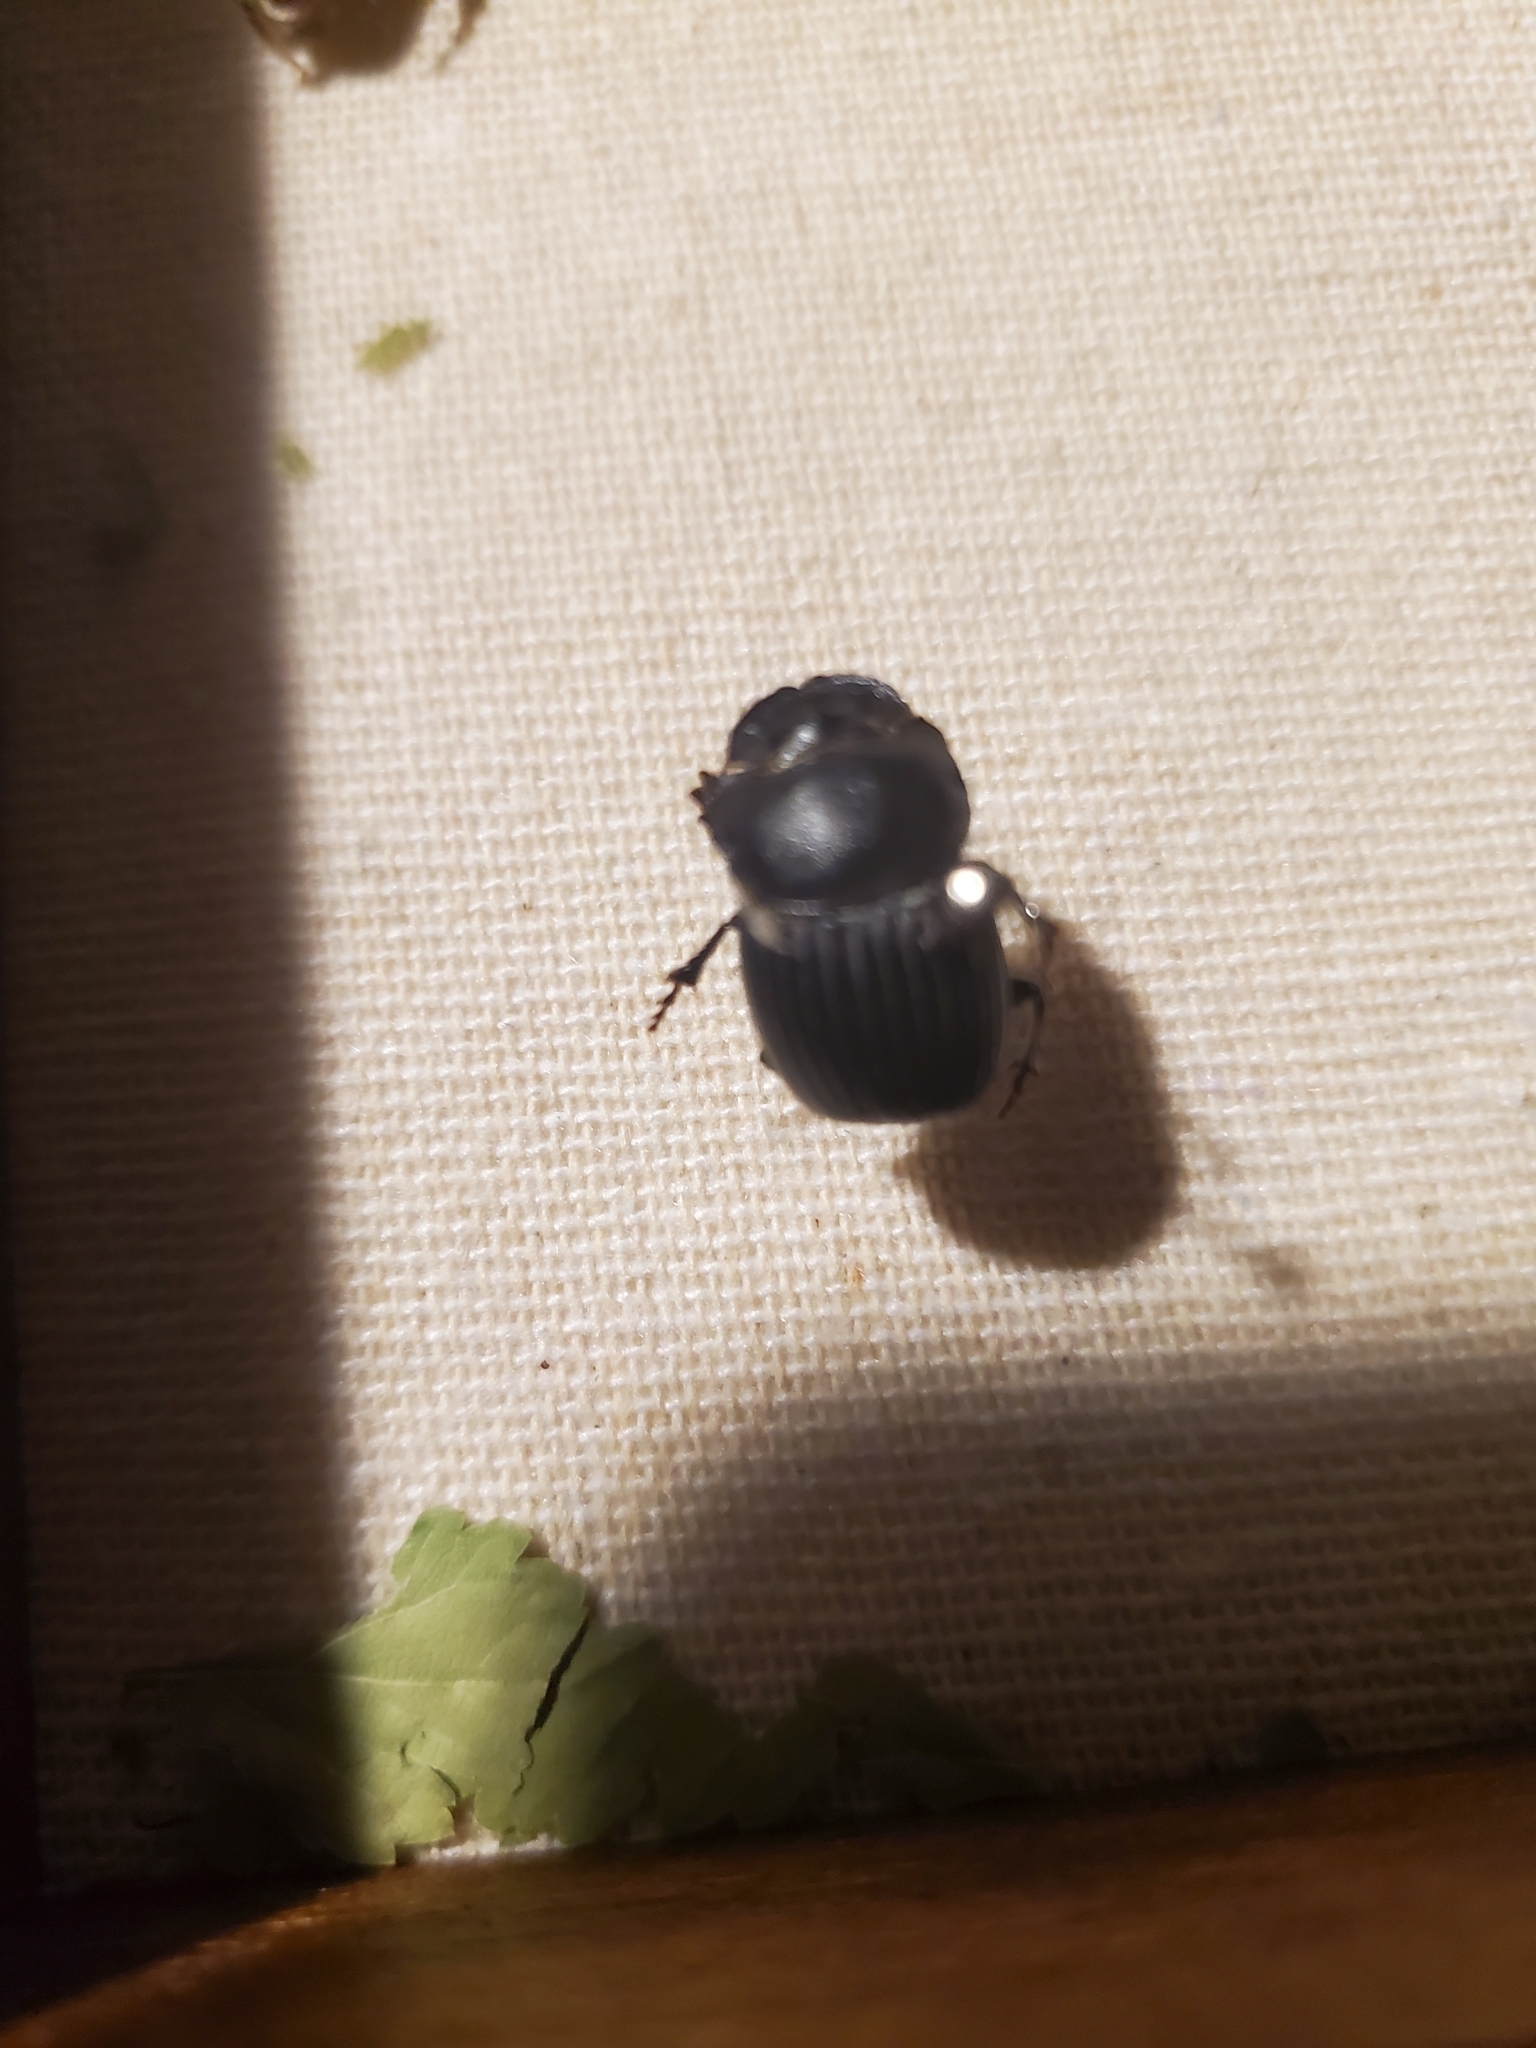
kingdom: Animalia
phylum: Arthropoda
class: Insecta
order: Coleoptera
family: Scarabaeidae
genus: Copris
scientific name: Copris fricator
